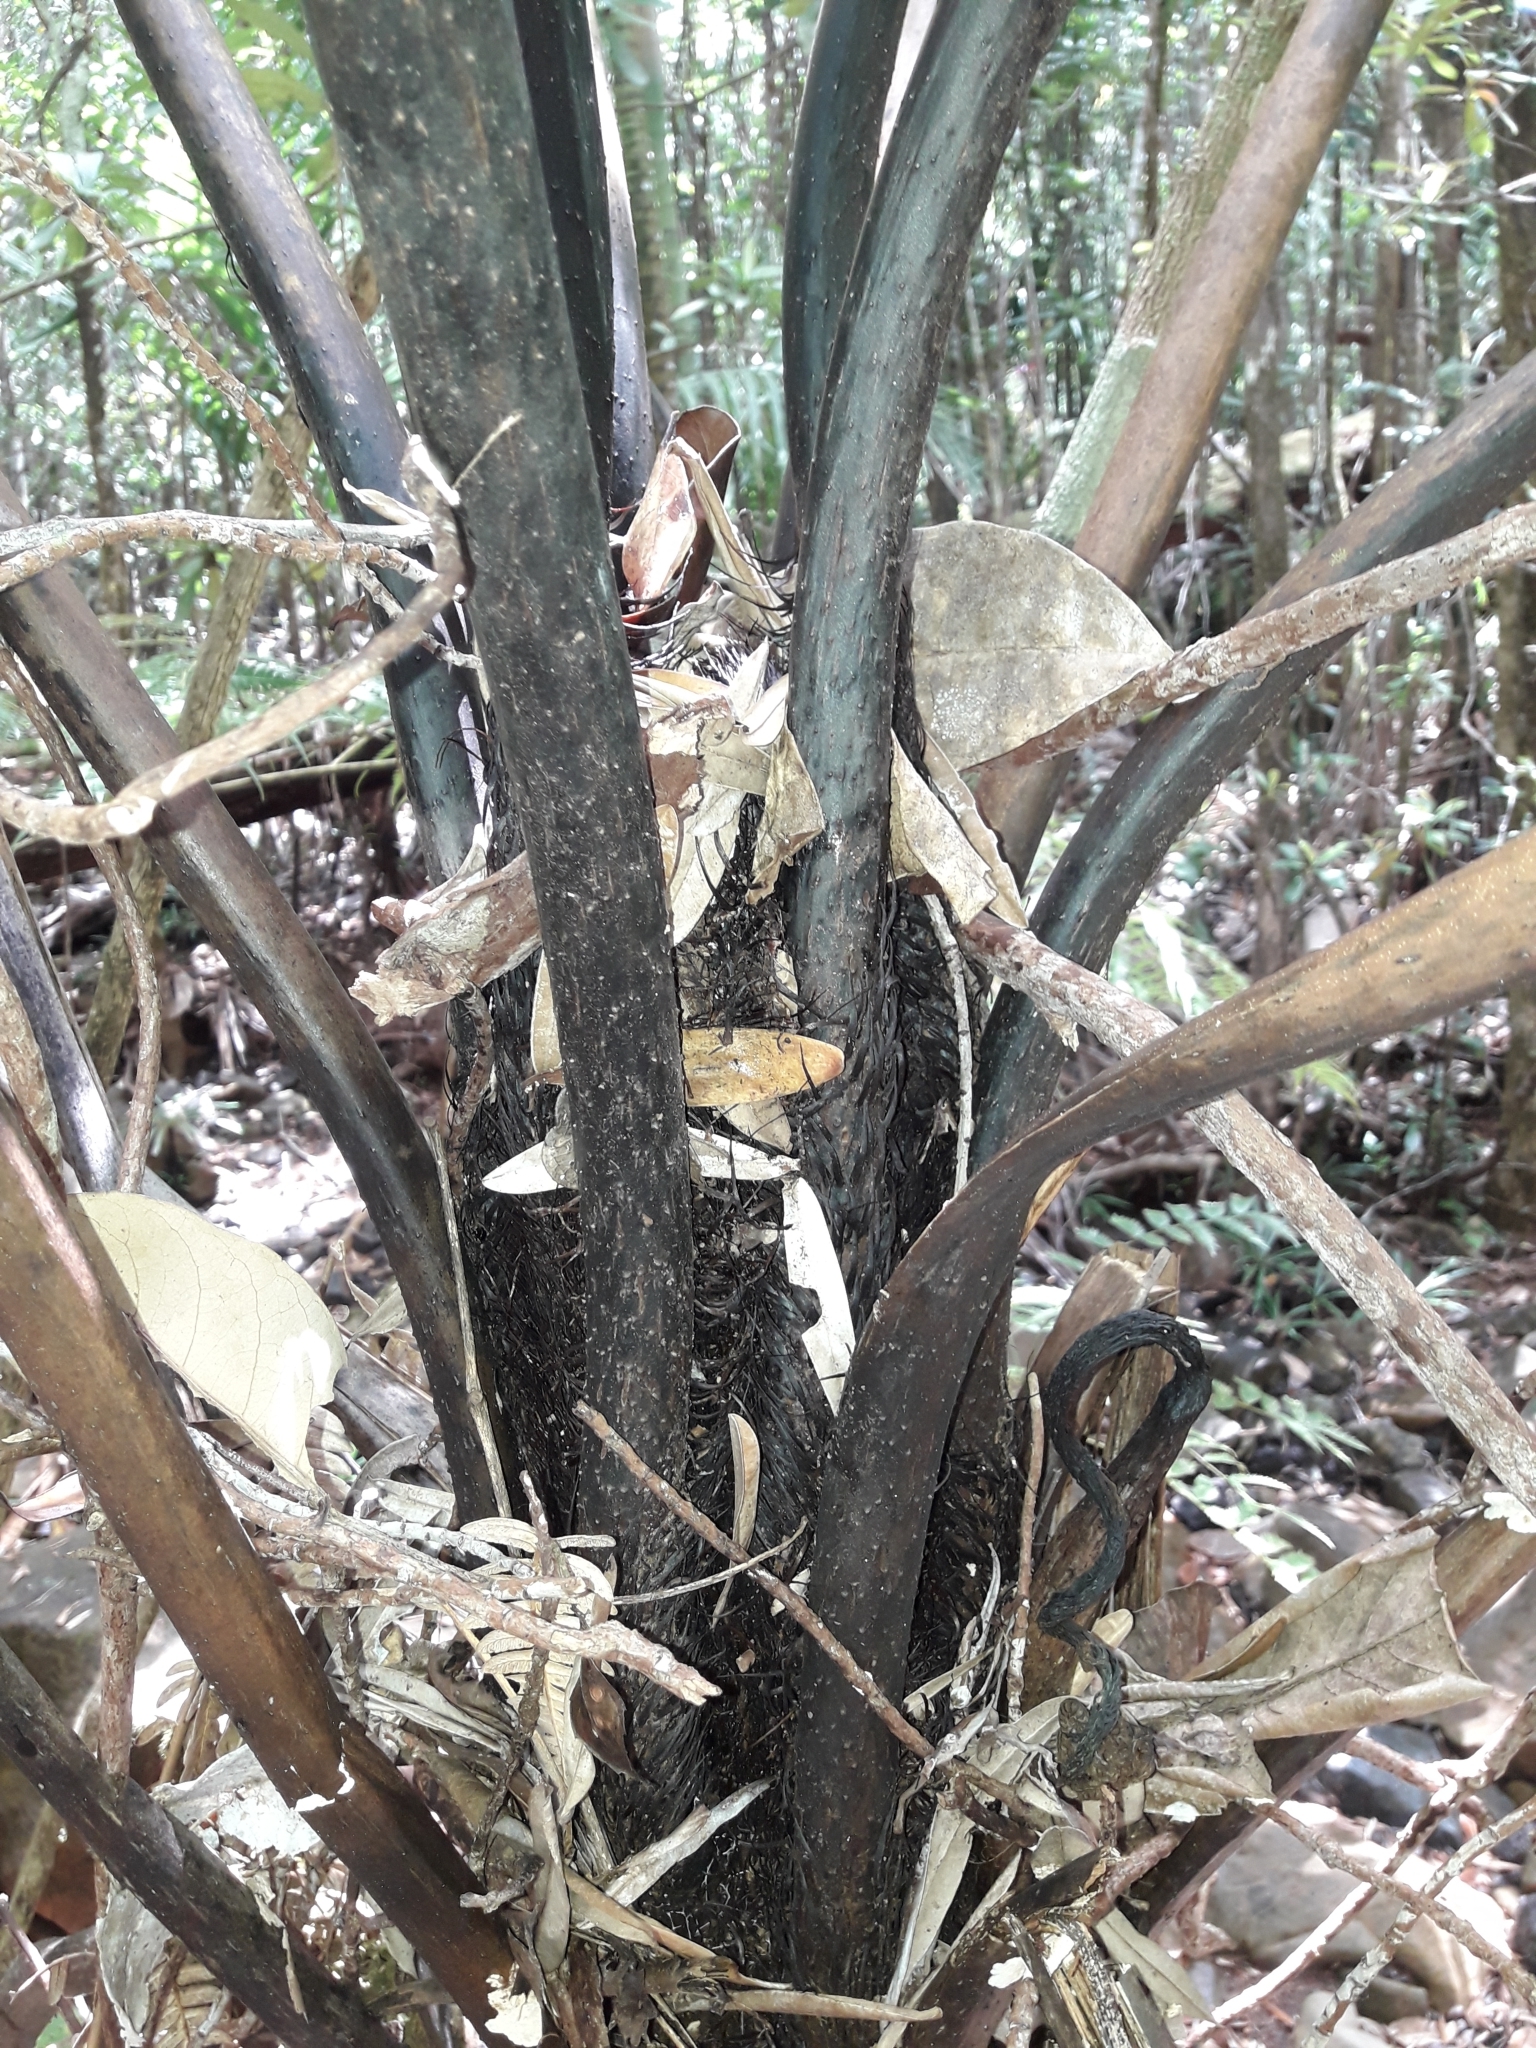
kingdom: Plantae
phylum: Tracheophyta
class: Polypodiopsida
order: Cyatheales
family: Cyatheaceae
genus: Sphaeropteris
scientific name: Sphaeropteris albifrons
